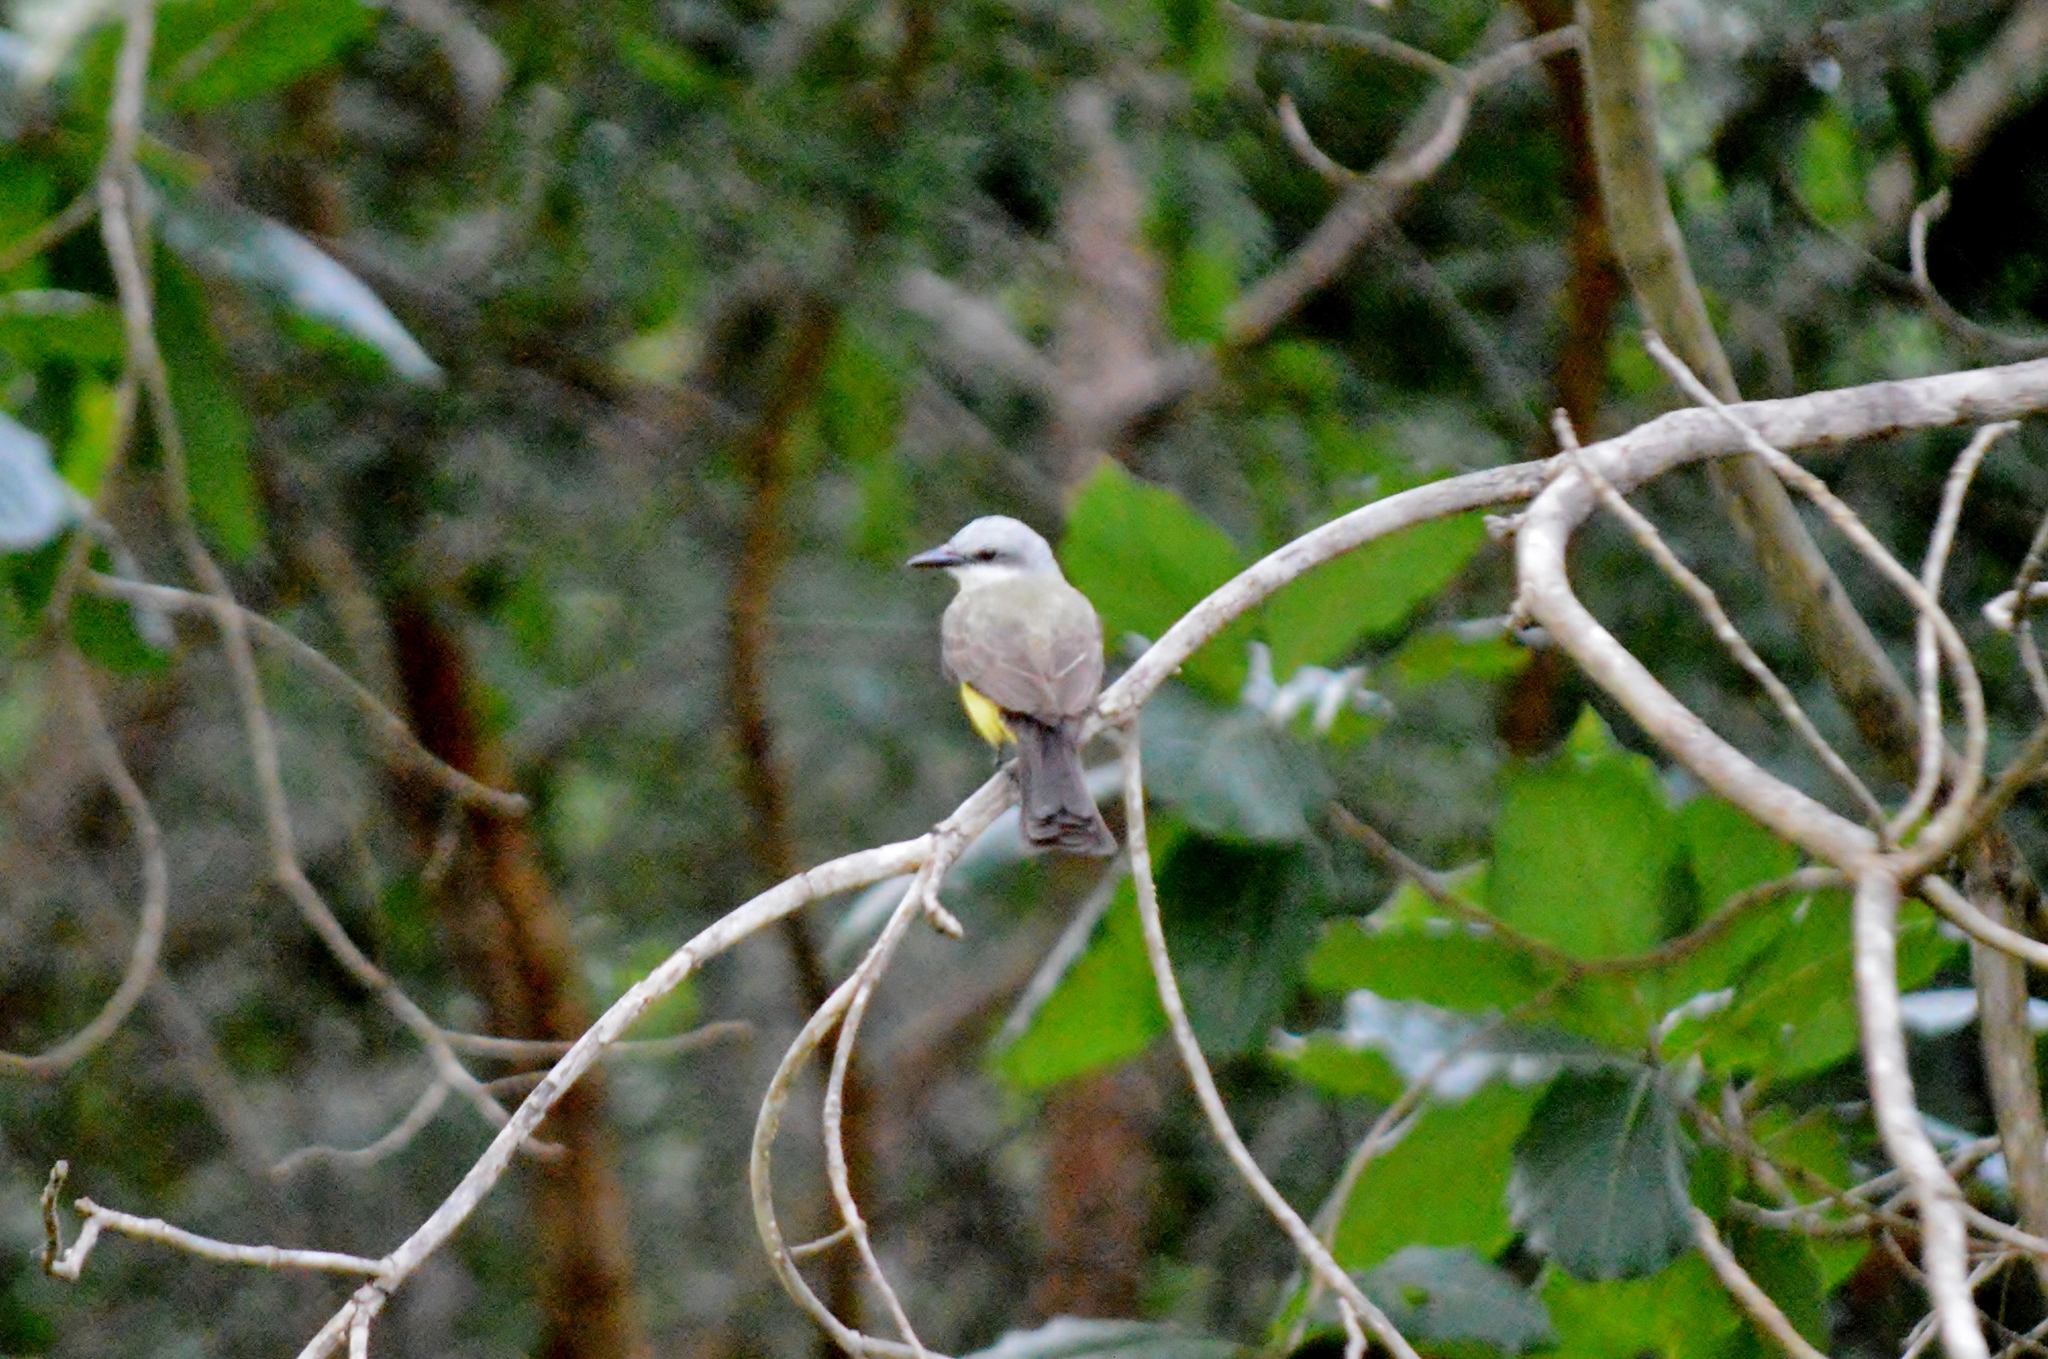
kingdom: Animalia
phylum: Chordata
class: Aves
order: Passeriformes
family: Tyrannidae
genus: Tyrannus
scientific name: Tyrannus melancholicus
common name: Tropical kingbird
